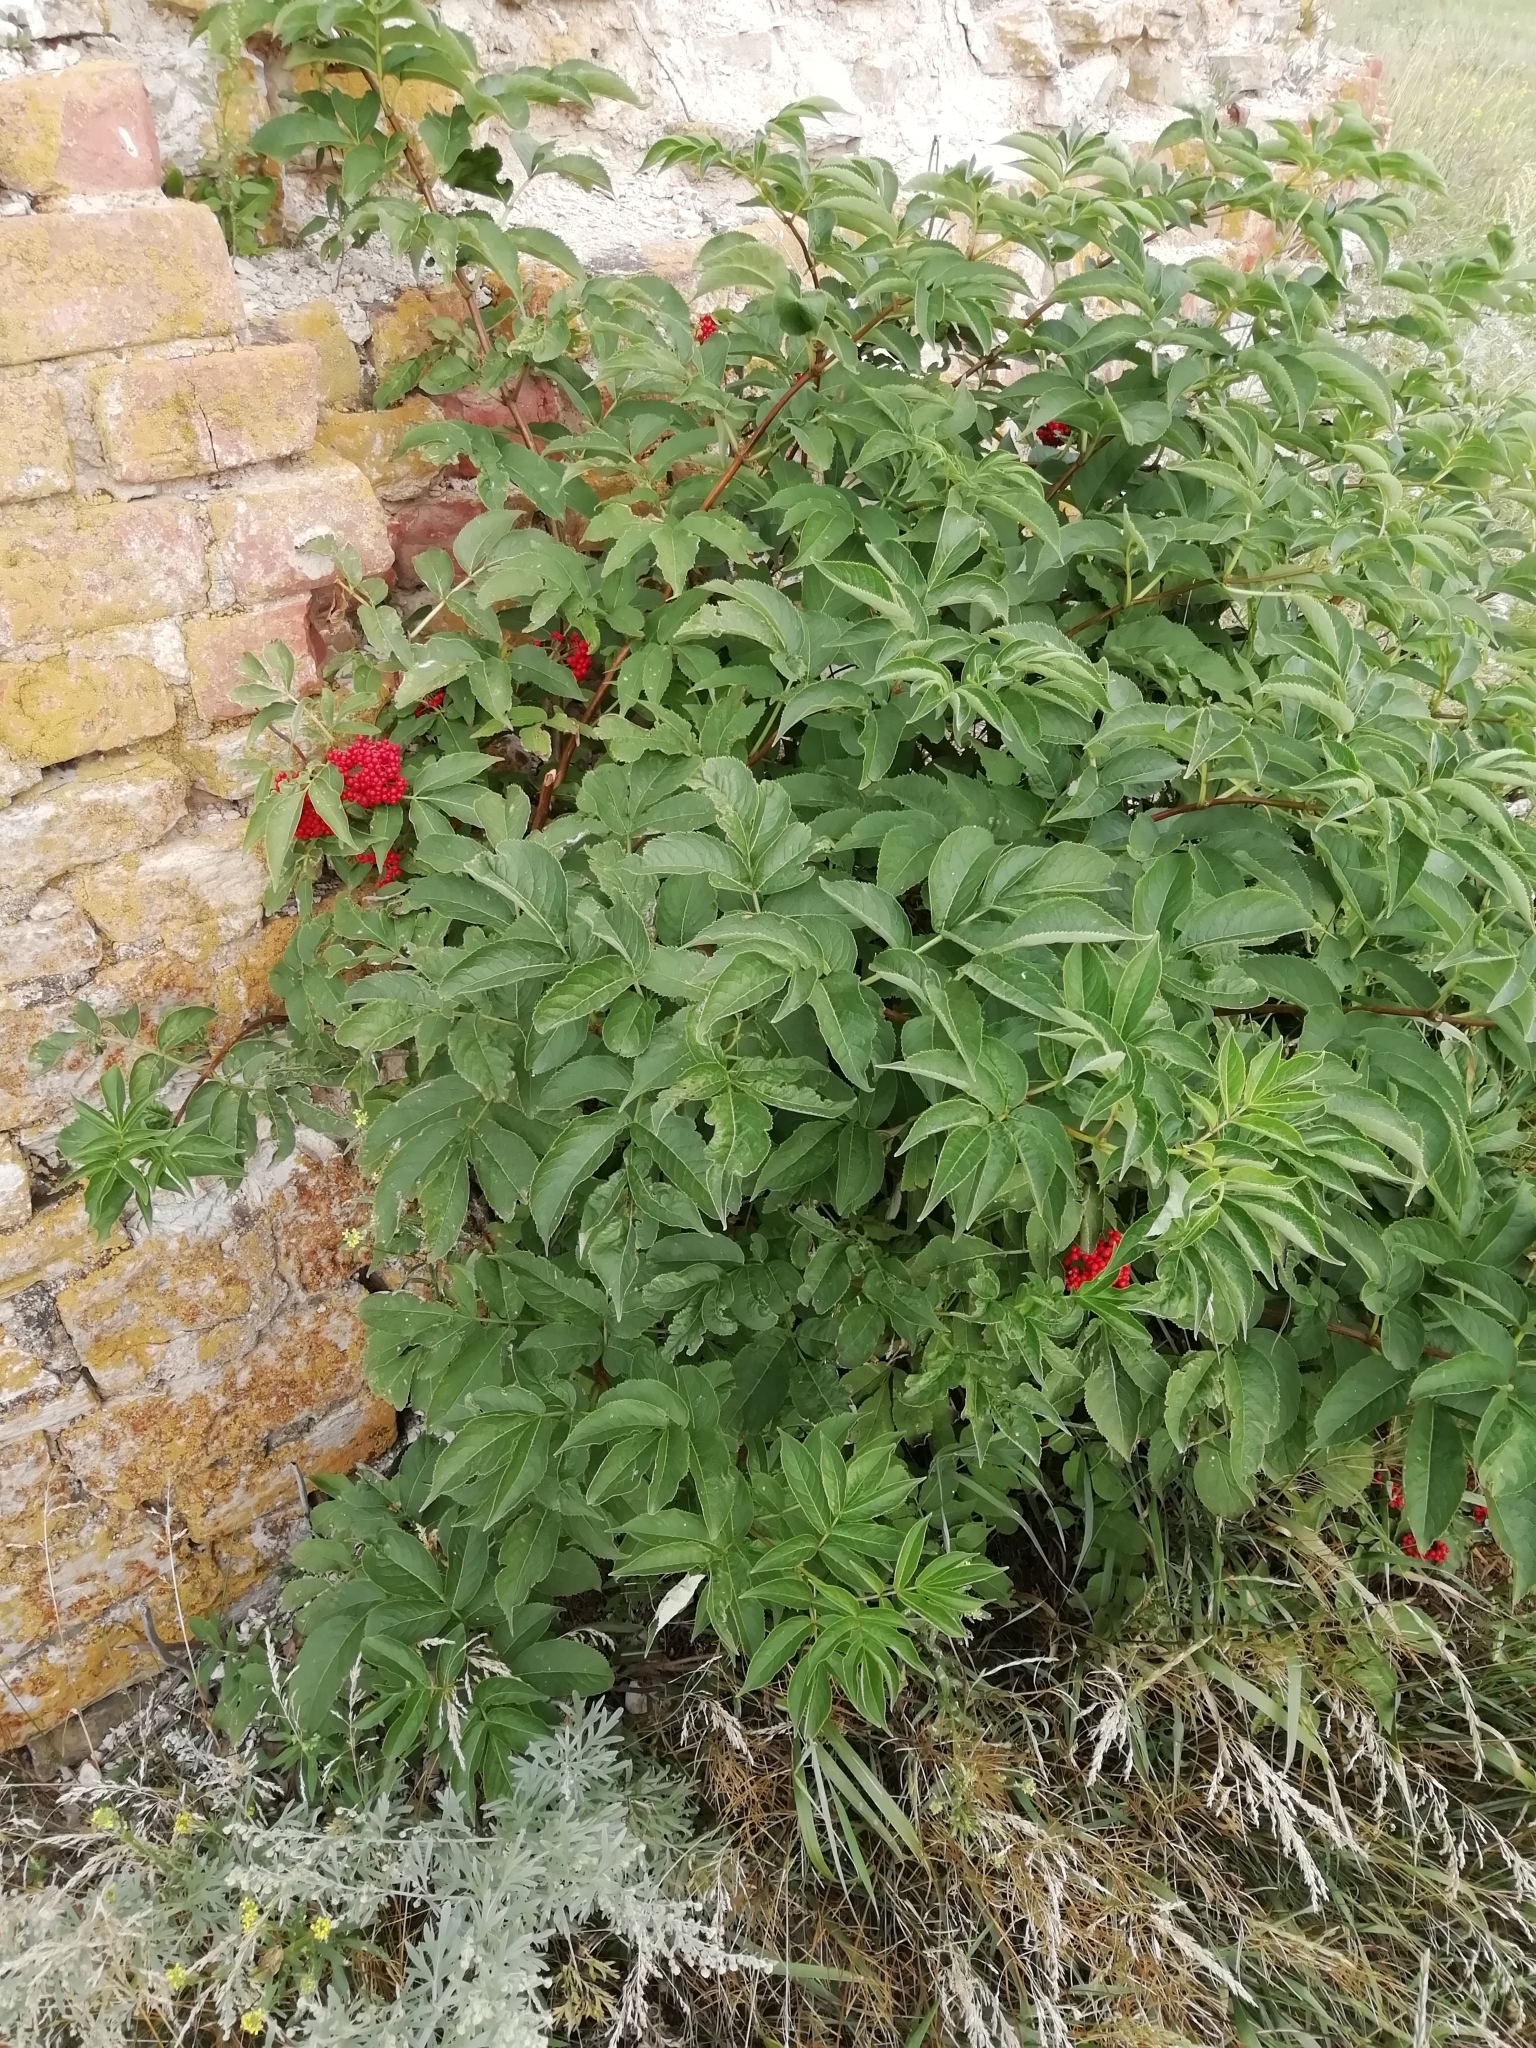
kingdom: Plantae
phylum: Tracheophyta
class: Magnoliopsida
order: Dipsacales
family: Viburnaceae
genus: Sambucus
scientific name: Sambucus racemosa
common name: Red-berried elder
